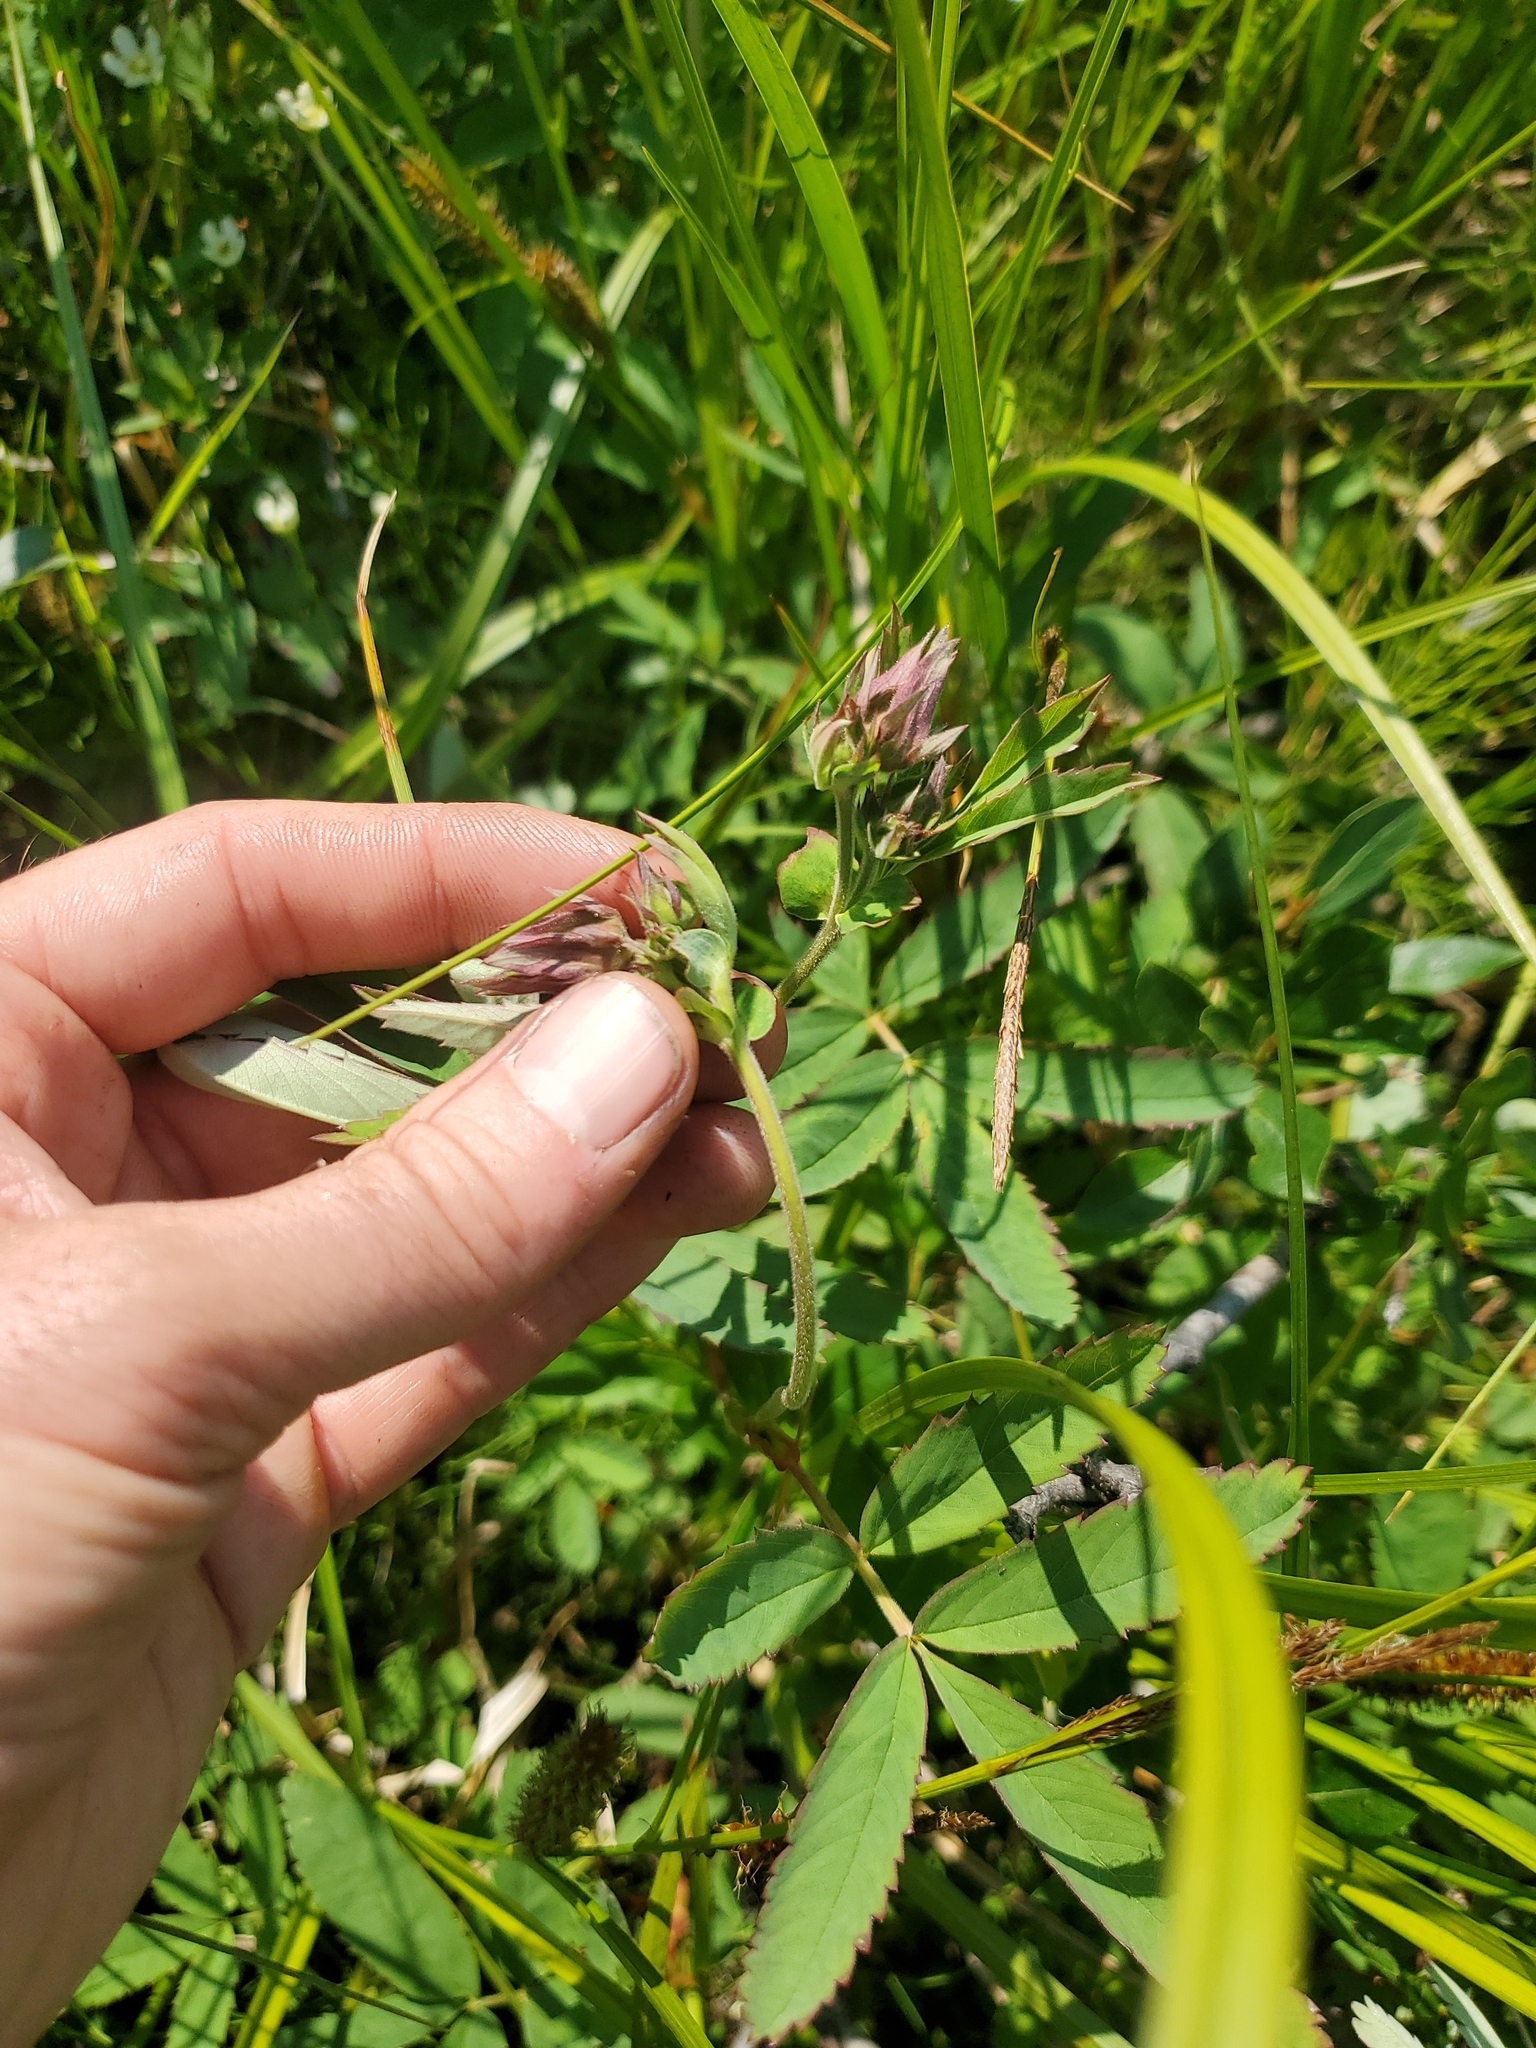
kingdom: Plantae
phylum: Tracheophyta
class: Magnoliopsida
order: Rosales
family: Rosaceae
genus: Comarum
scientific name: Comarum palustre
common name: Marsh cinquefoil
